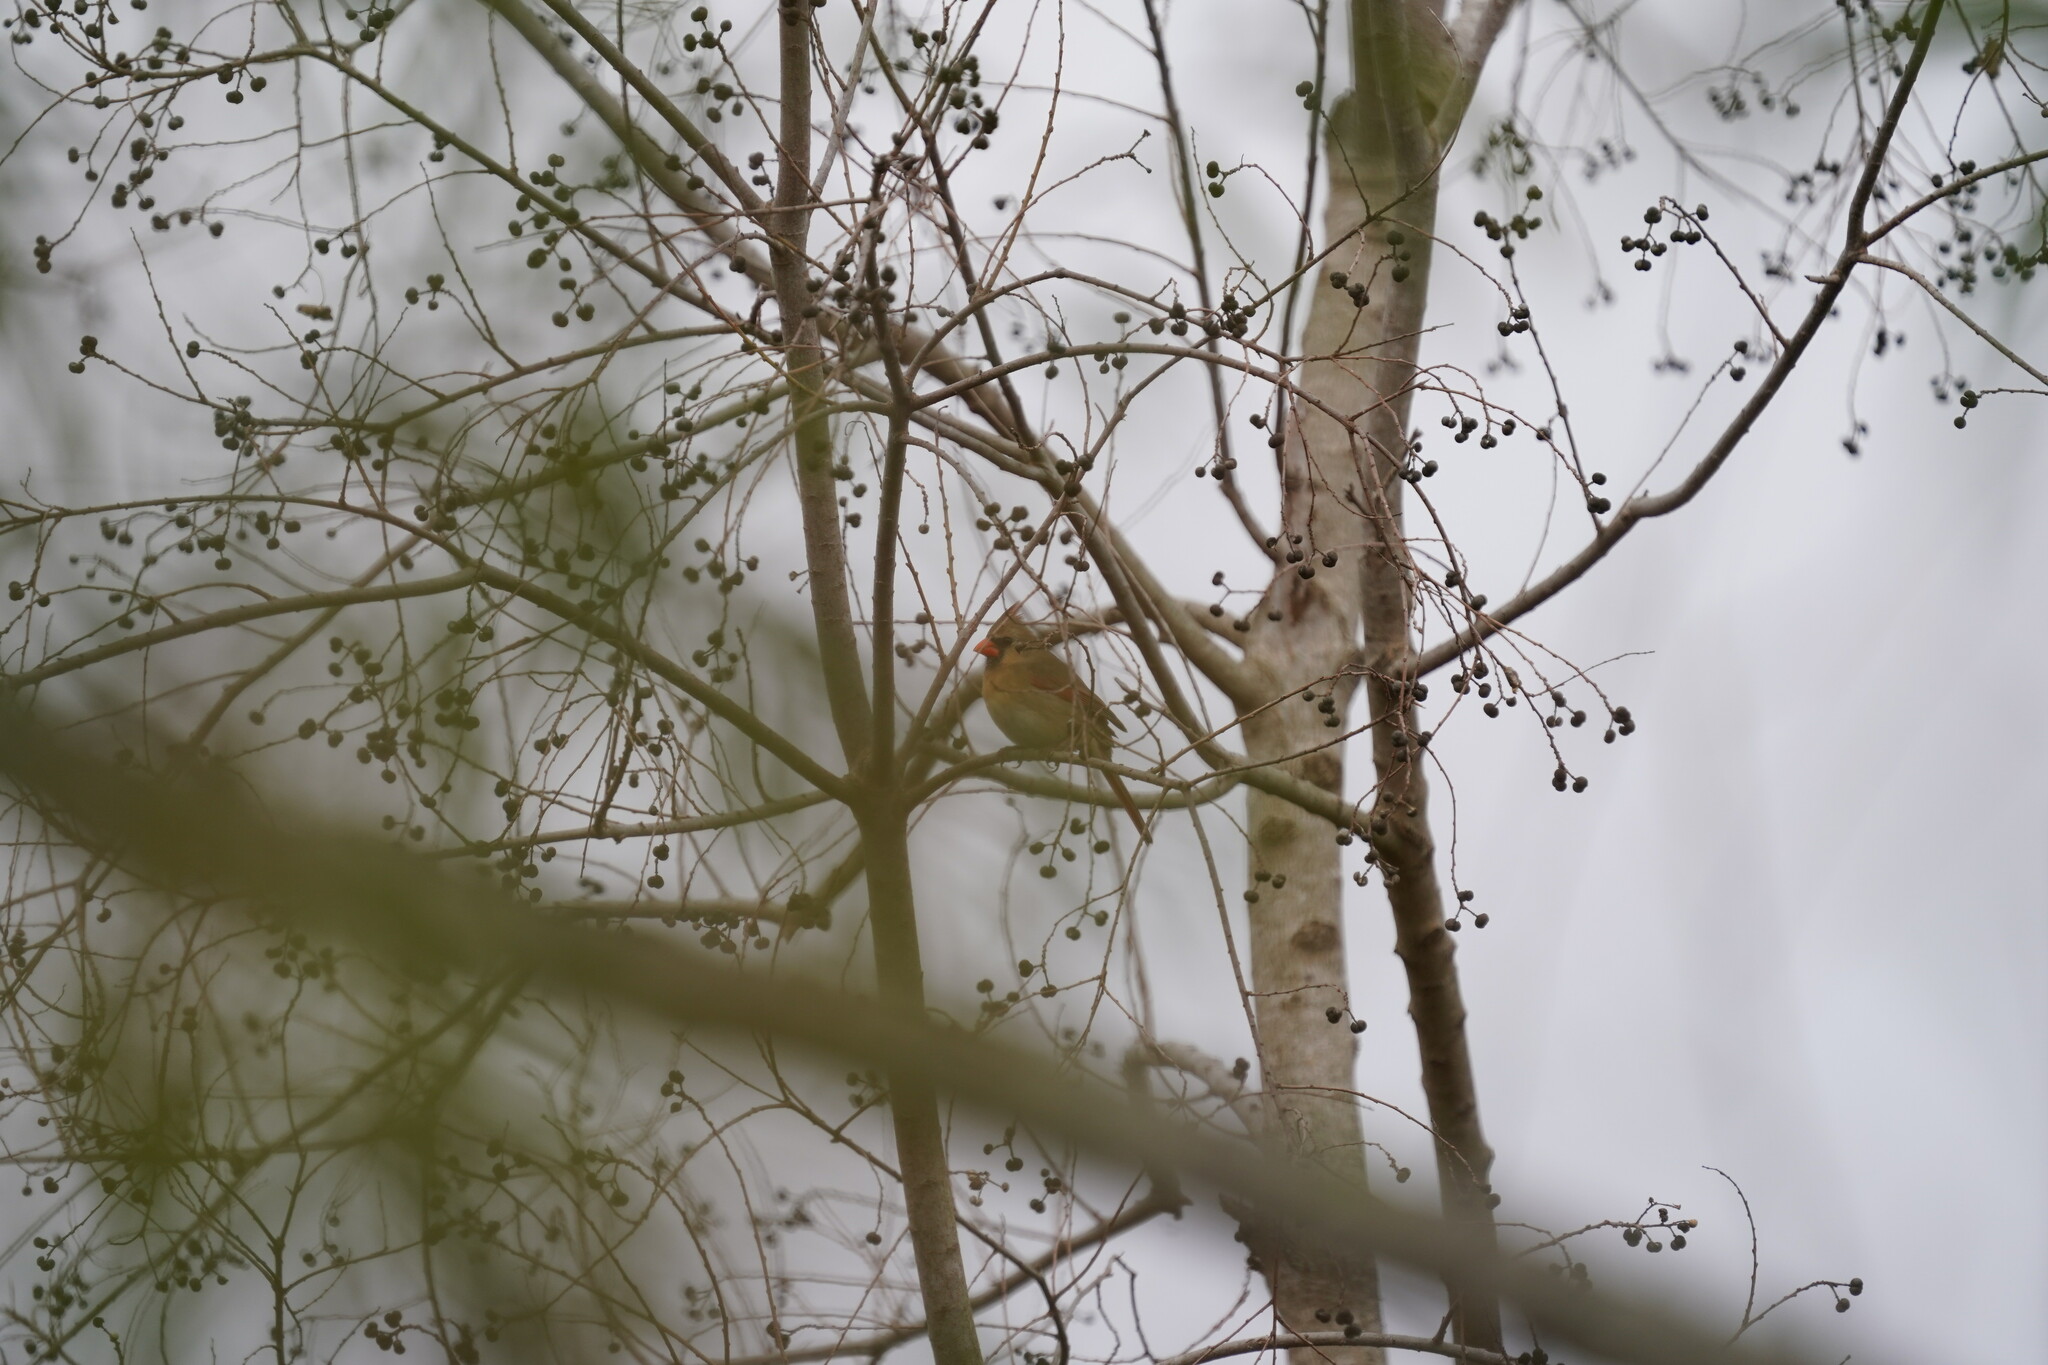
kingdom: Animalia
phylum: Chordata
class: Aves
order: Passeriformes
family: Cardinalidae
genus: Cardinalis
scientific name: Cardinalis cardinalis
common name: Northern cardinal
